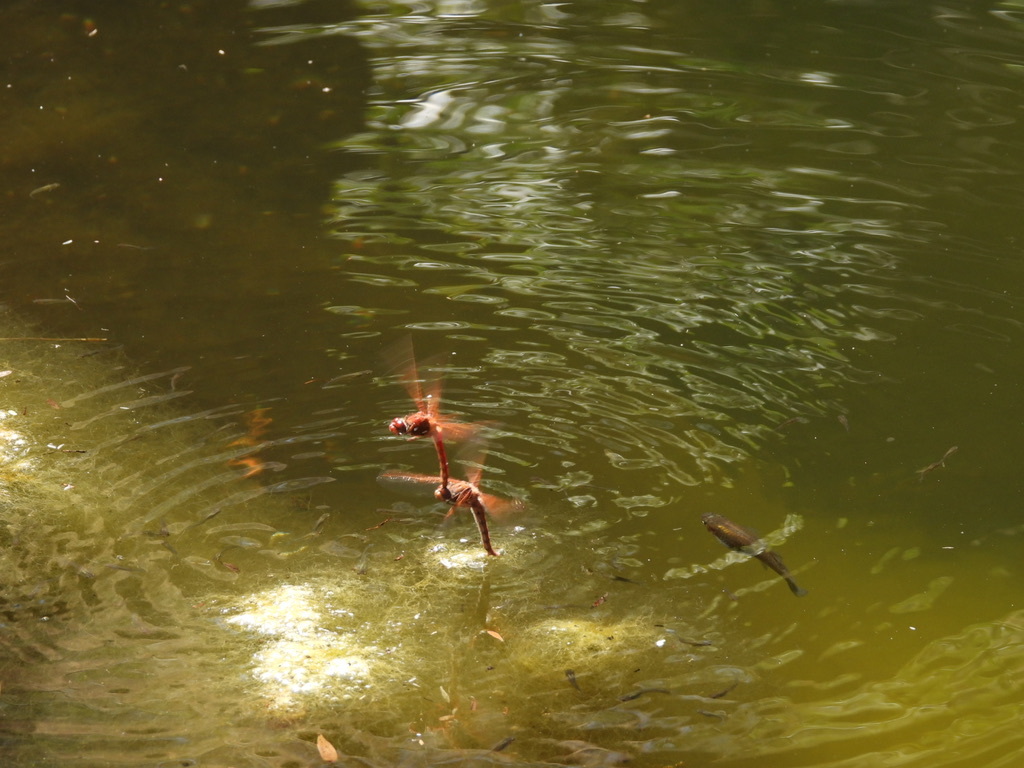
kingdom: Animalia
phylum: Arthropoda
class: Insecta
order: Odonata
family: Libellulidae
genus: Sympetrum
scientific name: Sympetrum illotum
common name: Cardinal meadowhawk
